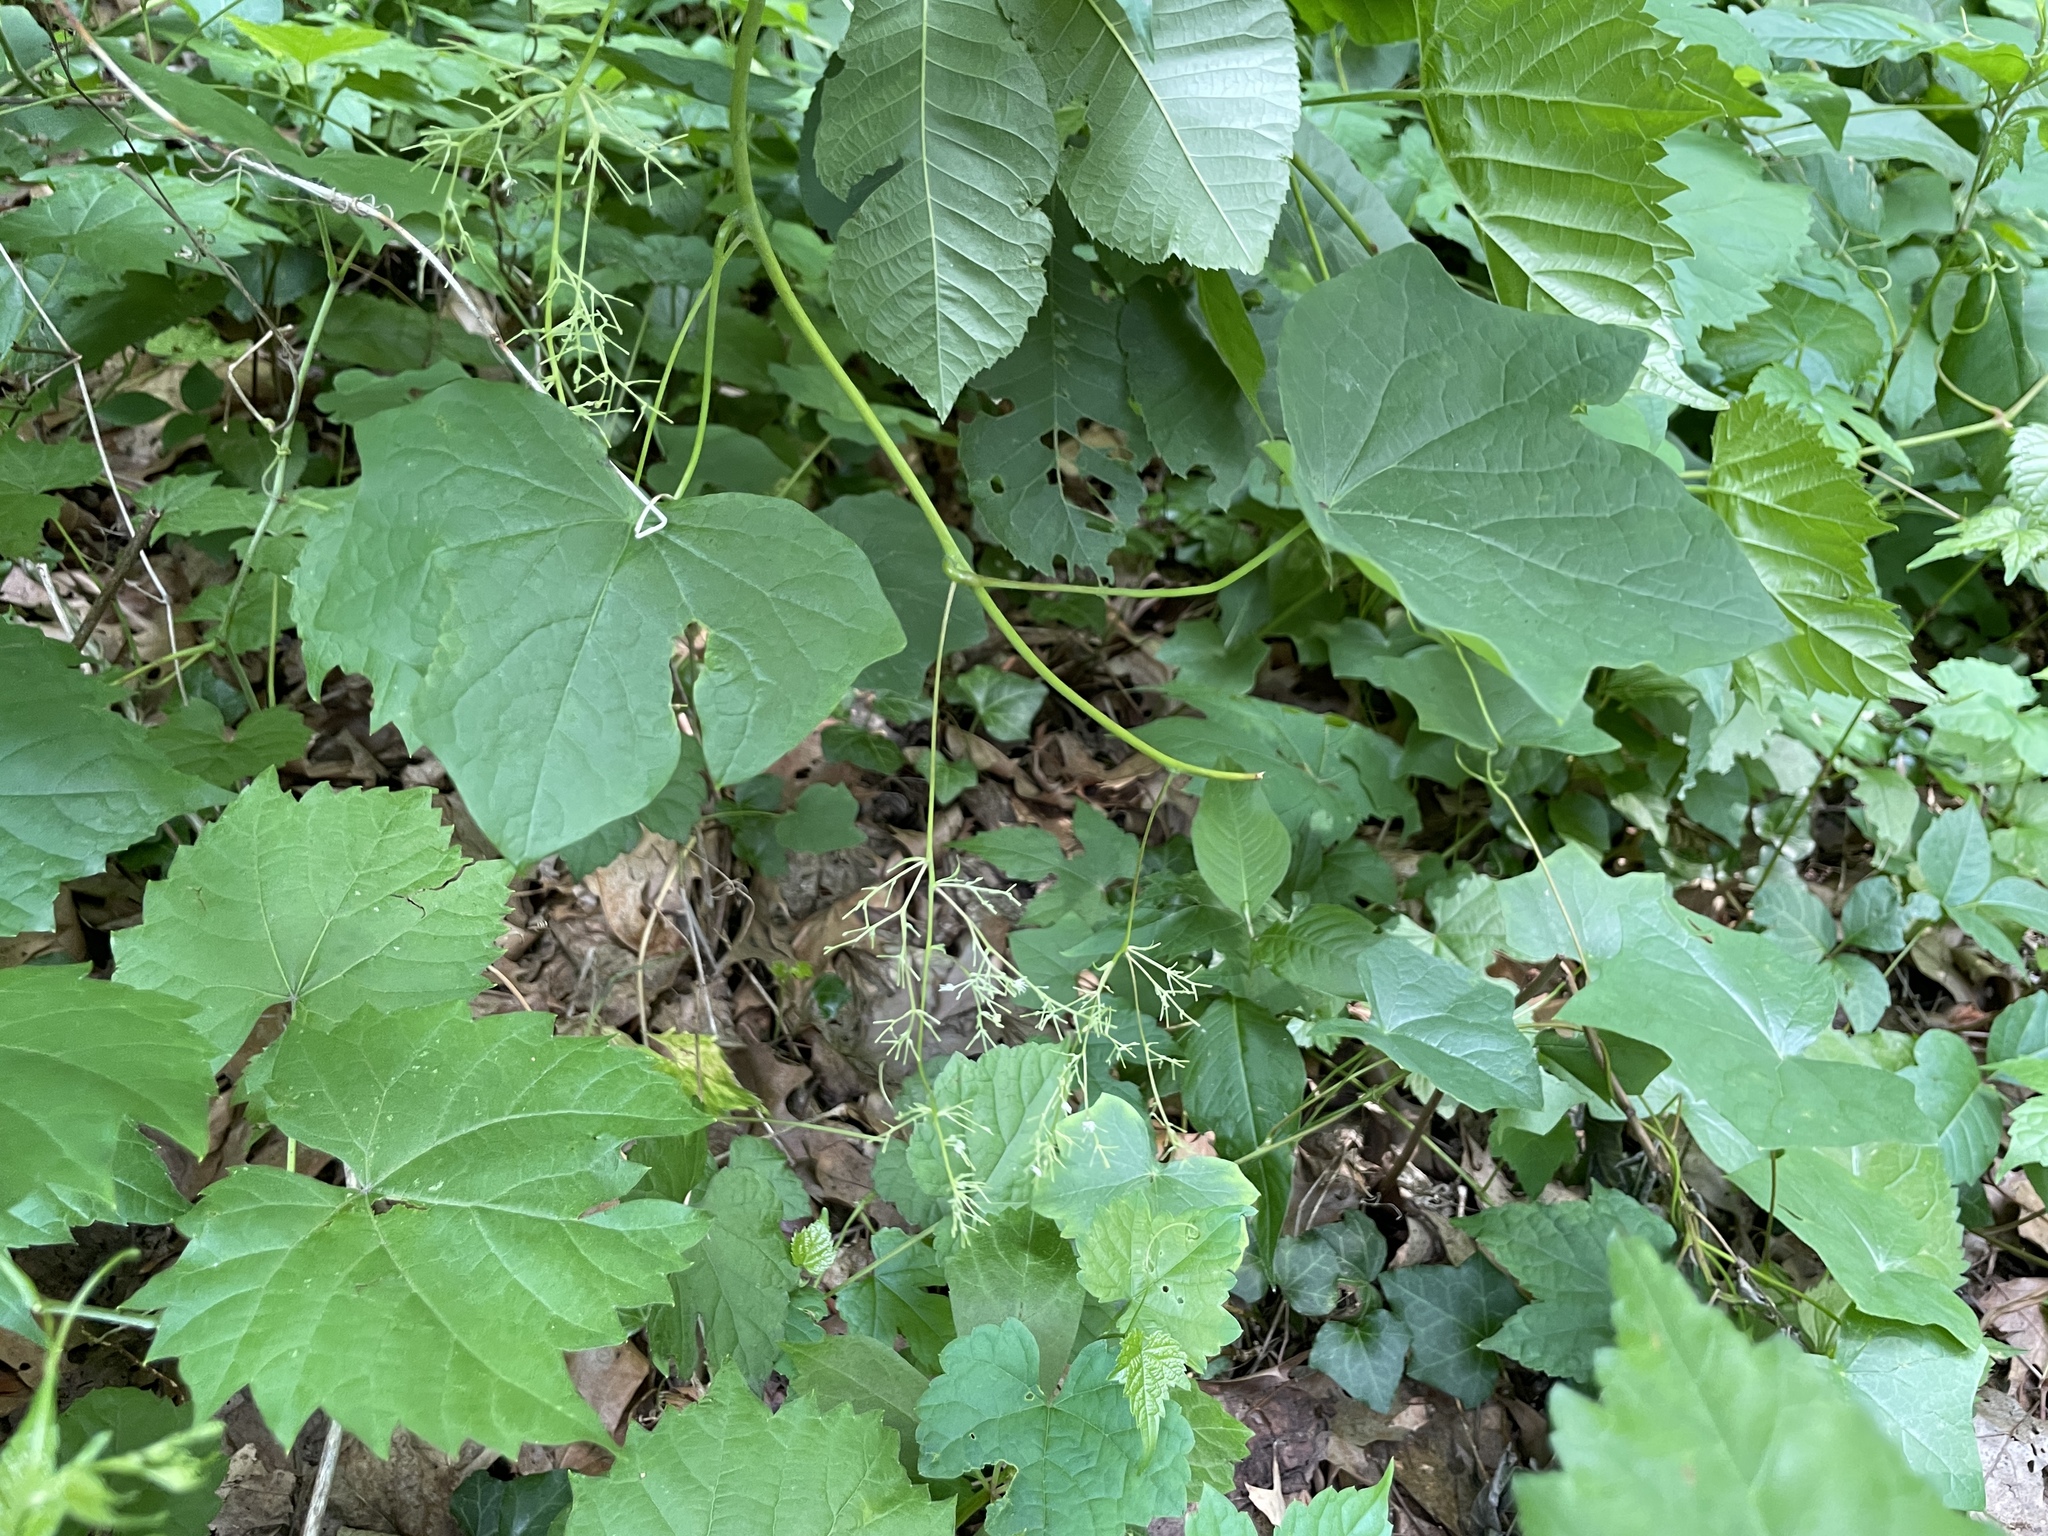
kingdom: Plantae
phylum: Tracheophyta
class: Magnoliopsida
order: Ranunculales
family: Menispermaceae
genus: Menispermum
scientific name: Menispermum canadense
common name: Moonseed
